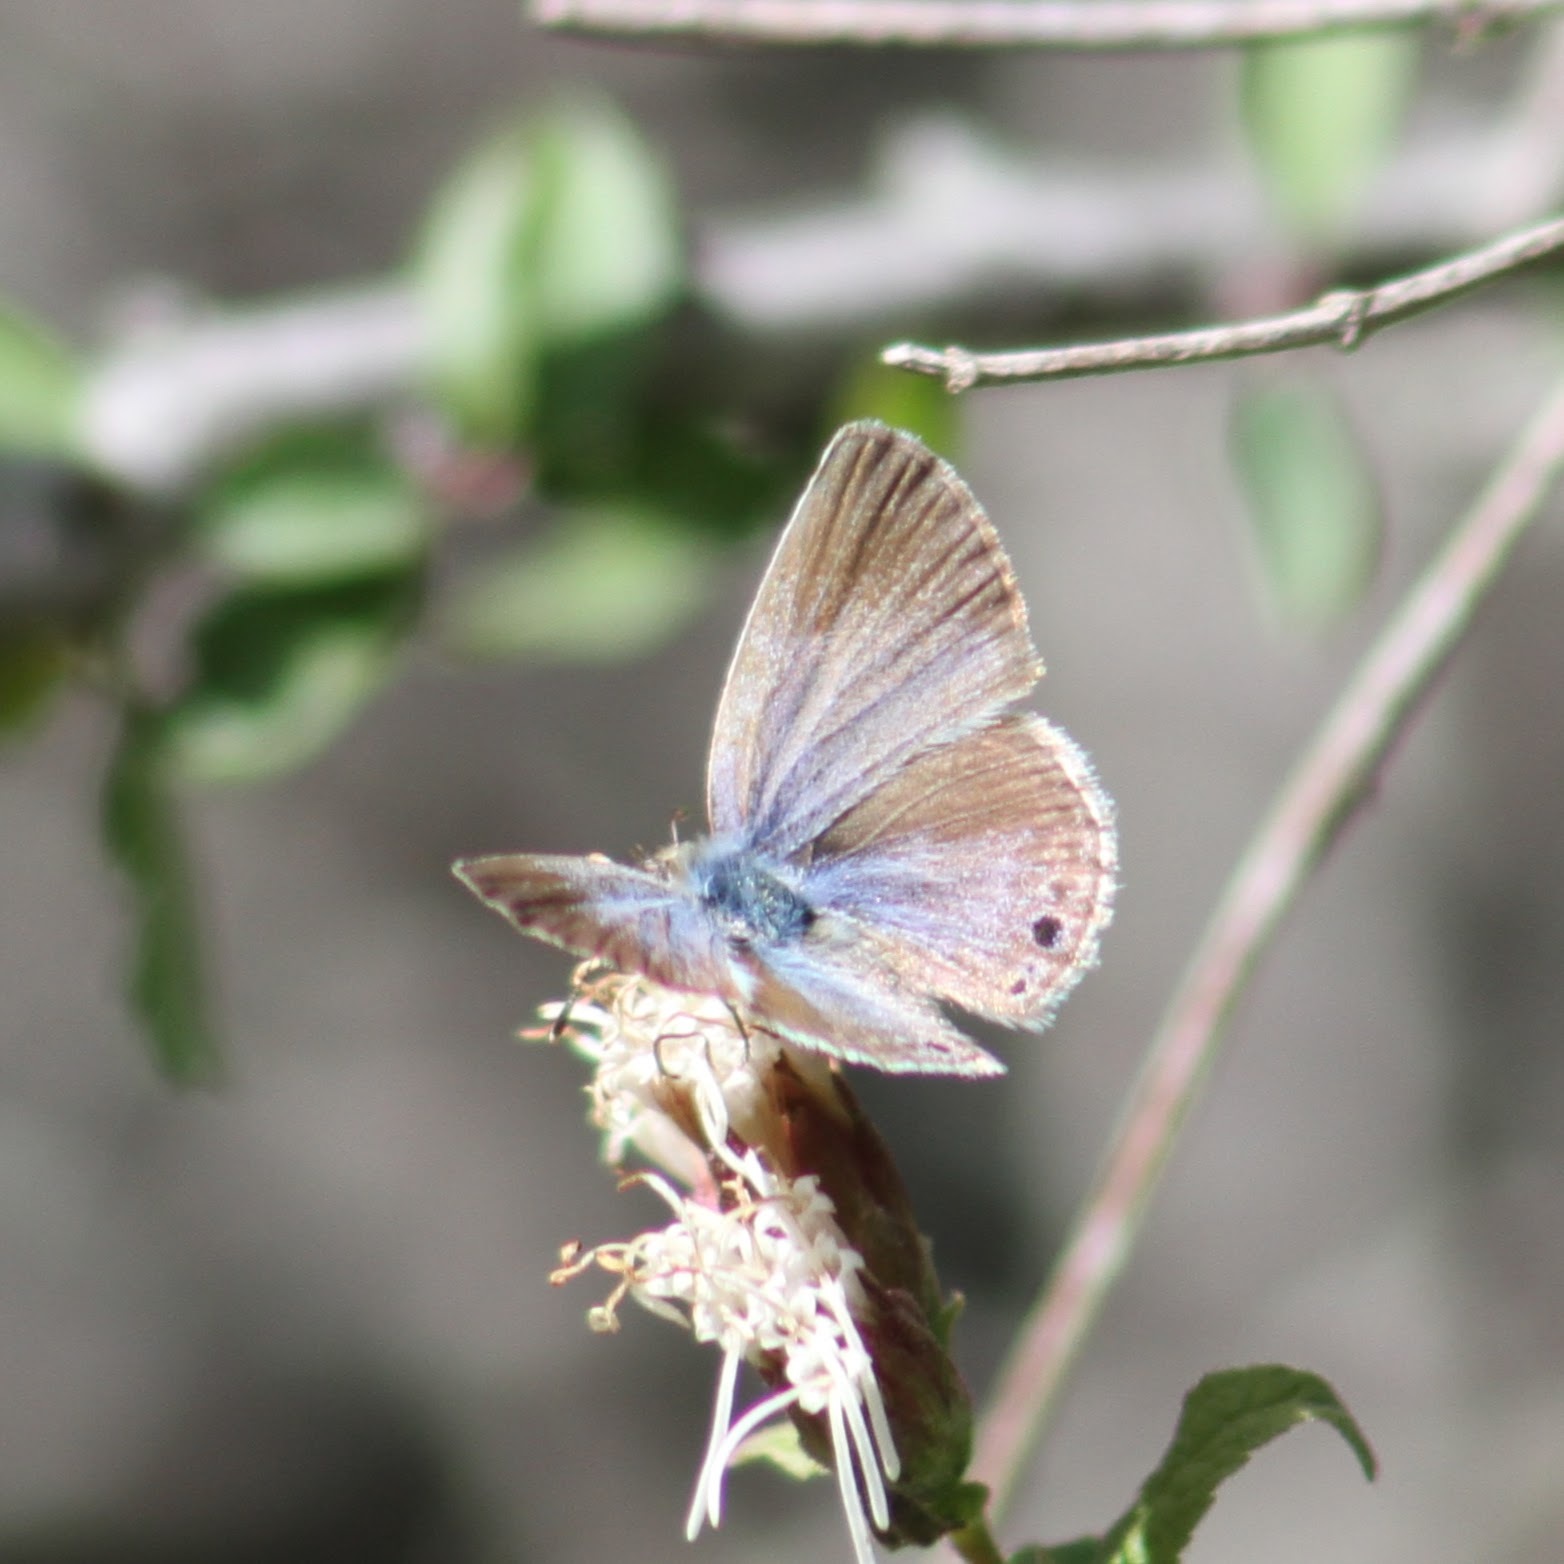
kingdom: Animalia
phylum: Arthropoda
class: Insecta
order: Lepidoptera
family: Lycaenidae
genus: Echinargus
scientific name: Echinargus isola
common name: Reakirt's blue
